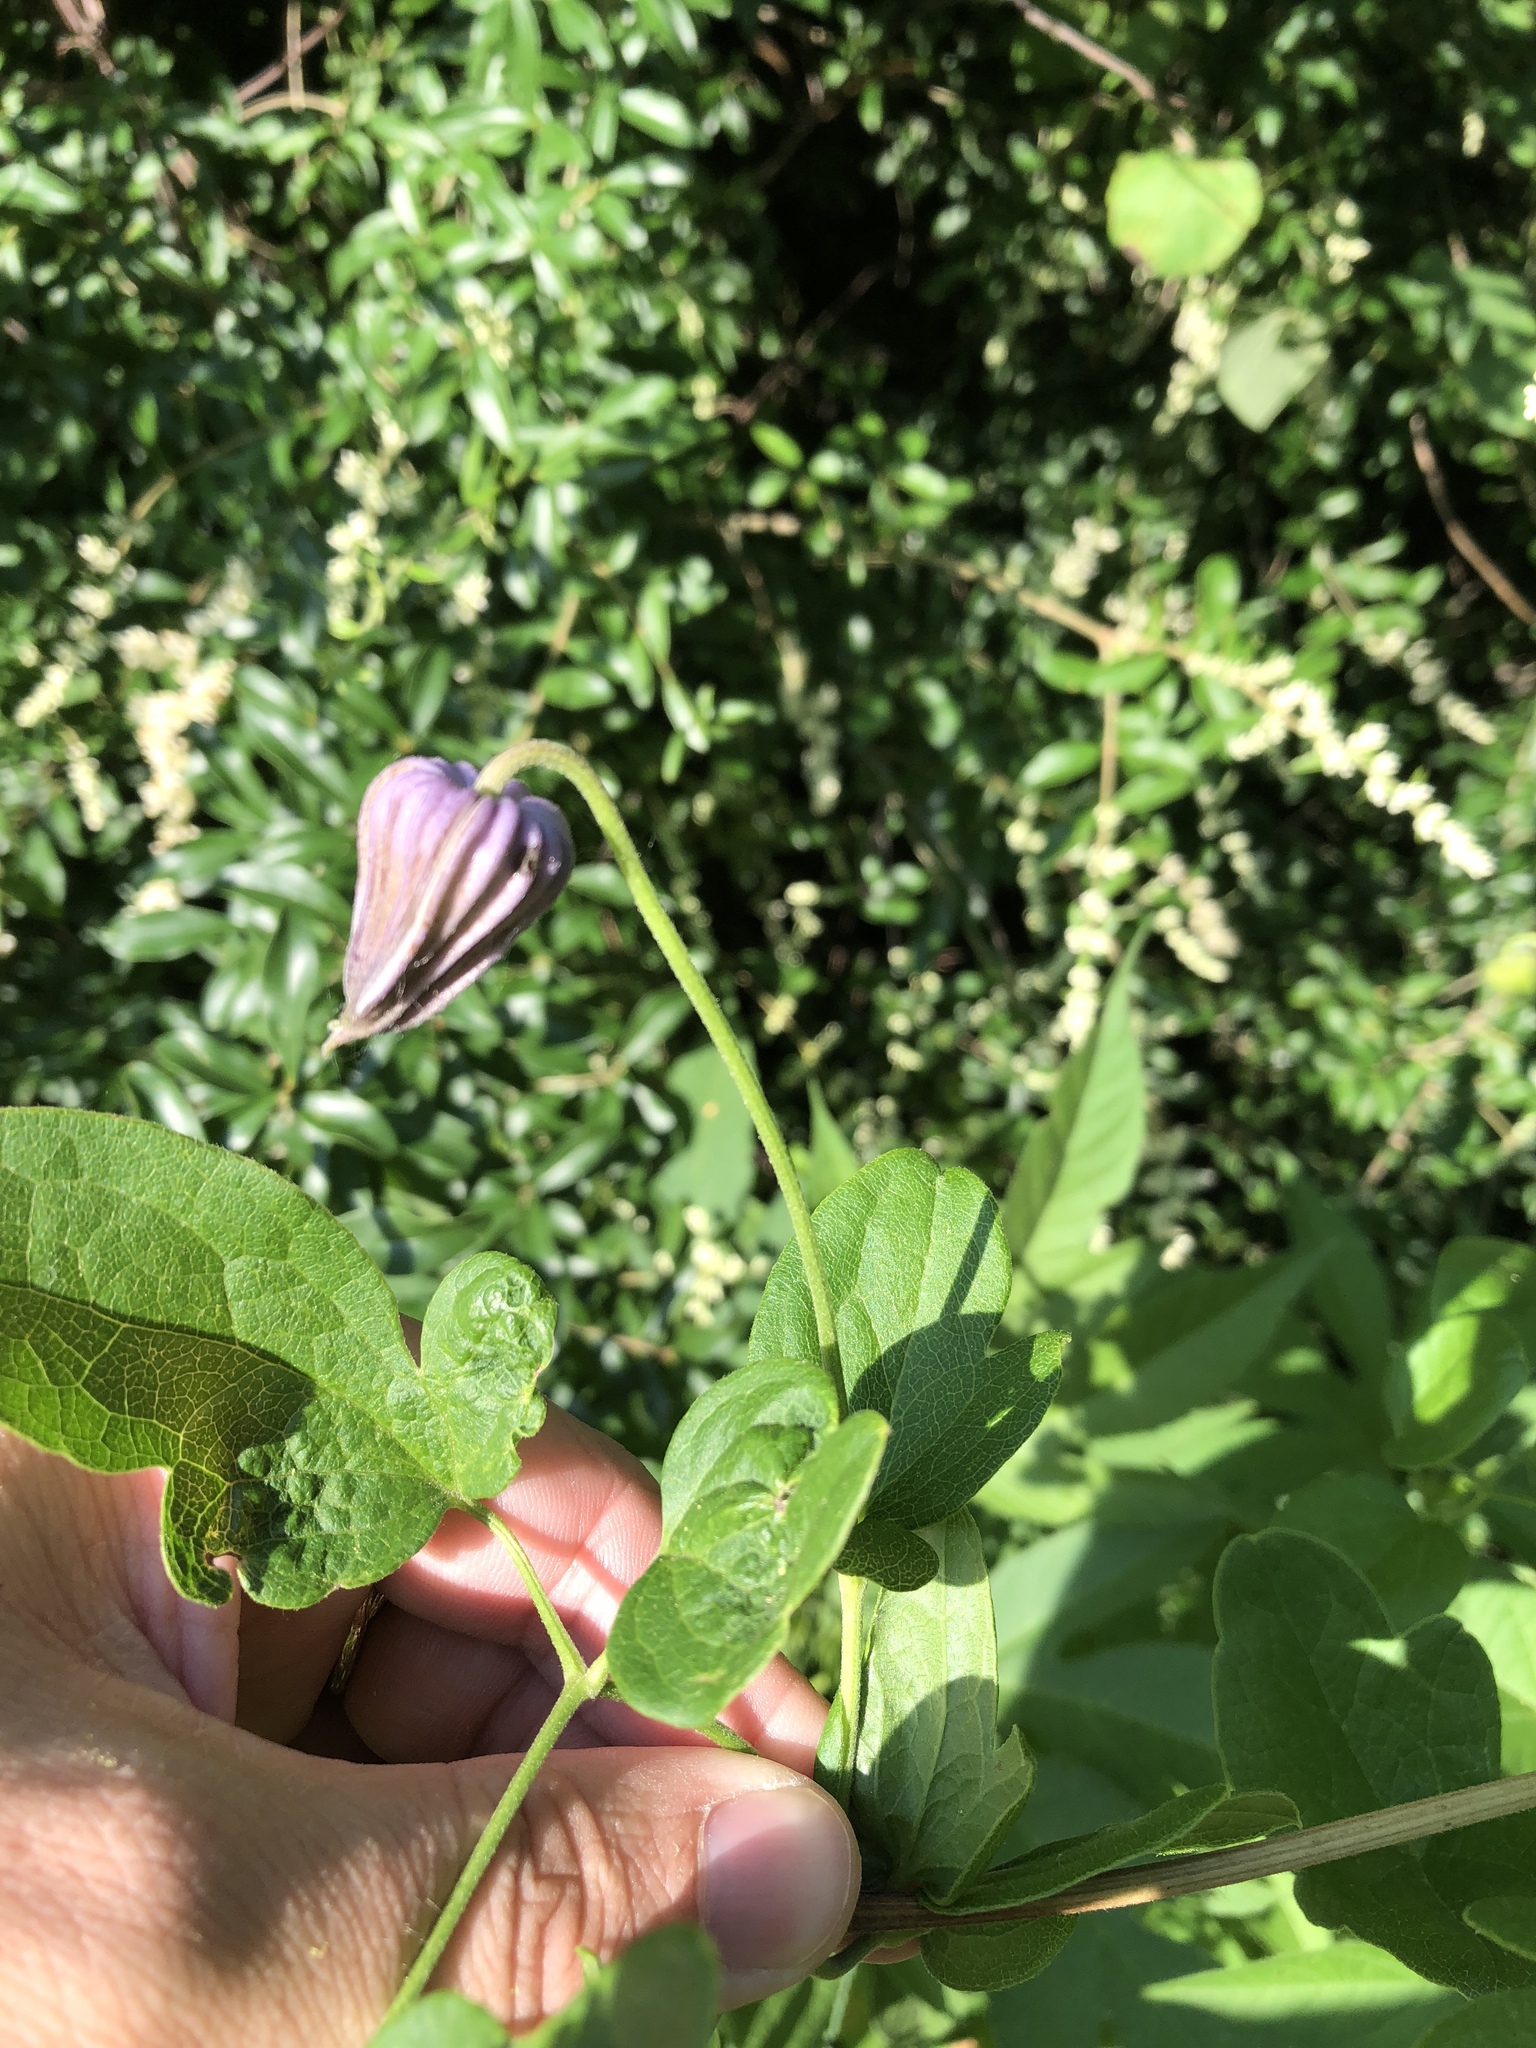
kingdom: Plantae
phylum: Tracheophyta
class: Magnoliopsida
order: Ranunculales
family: Ranunculaceae
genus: Clematis
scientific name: Clematis pitcheri
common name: Bellflower clematis
